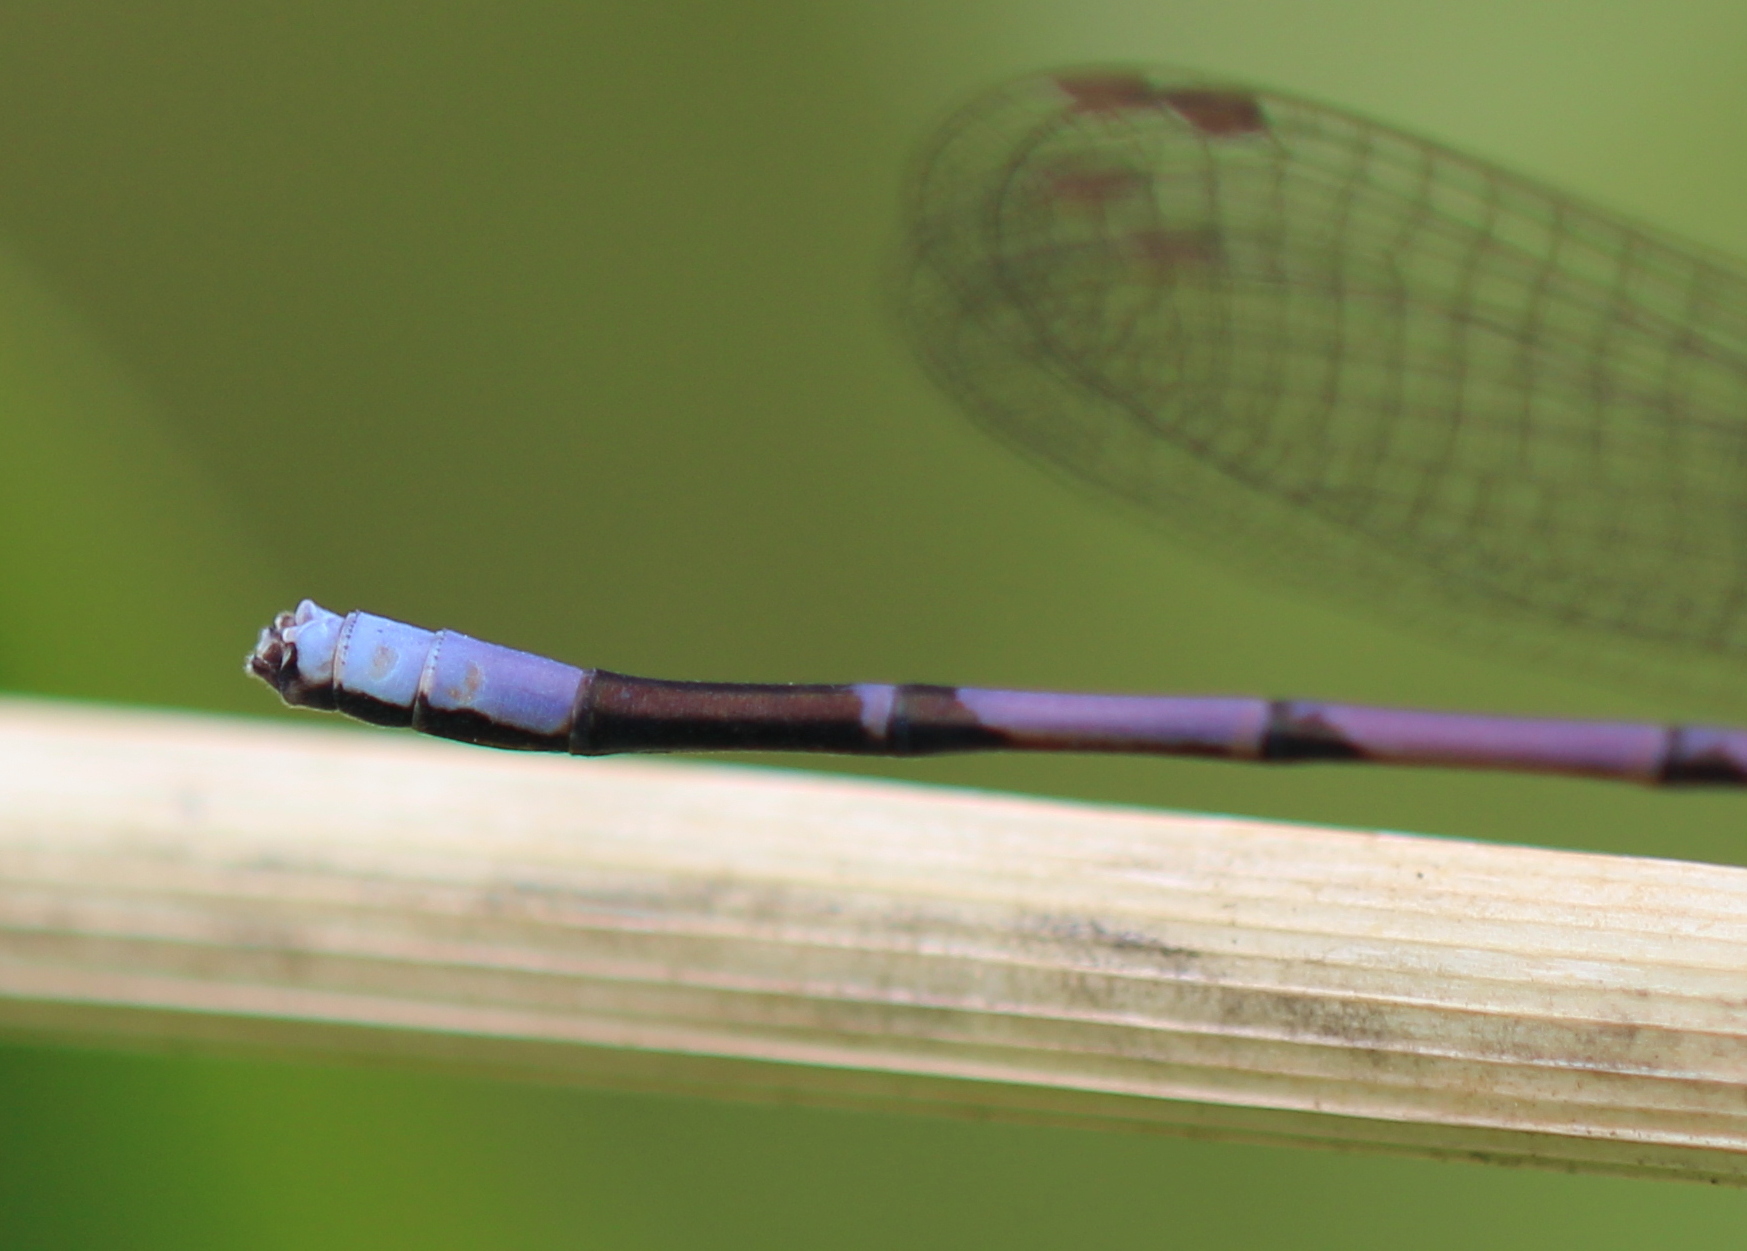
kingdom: Animalia
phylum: Arthropoda
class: Insecta
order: Odonata
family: Coenagrionidae
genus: Argia
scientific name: Argia fumipennis
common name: Variable dancer
